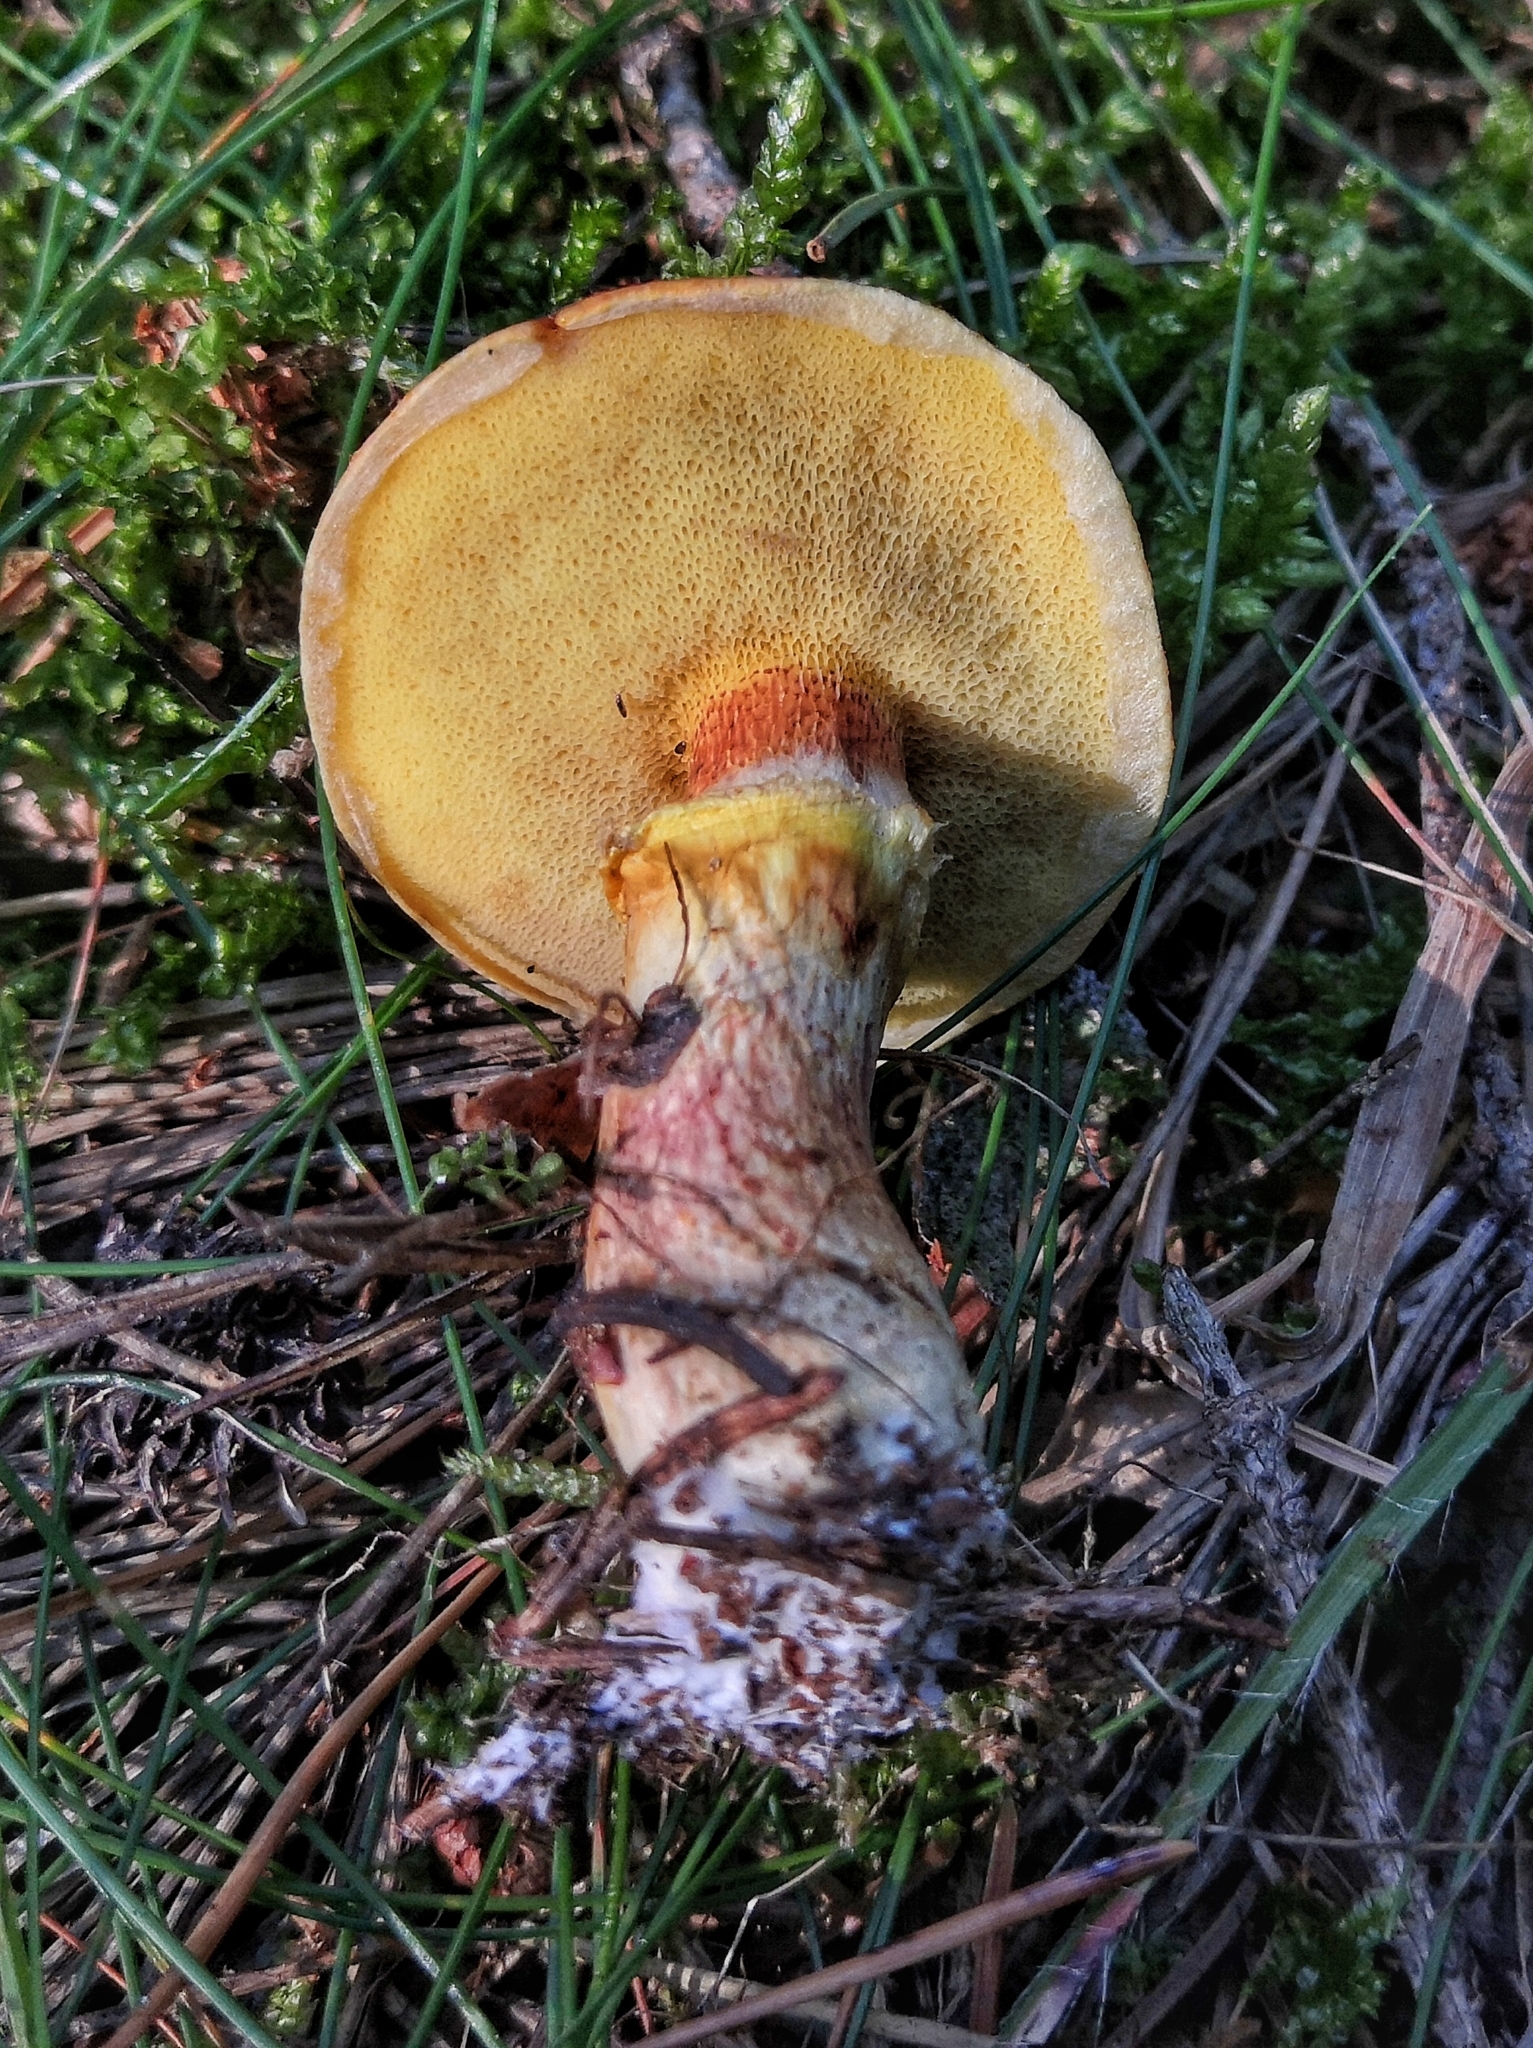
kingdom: Fungi
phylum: Basidiomycota
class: Agaricomycetes
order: Boletales
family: Suillaceae
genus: Suillus
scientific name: Suillus grevillei
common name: Larch bolete
